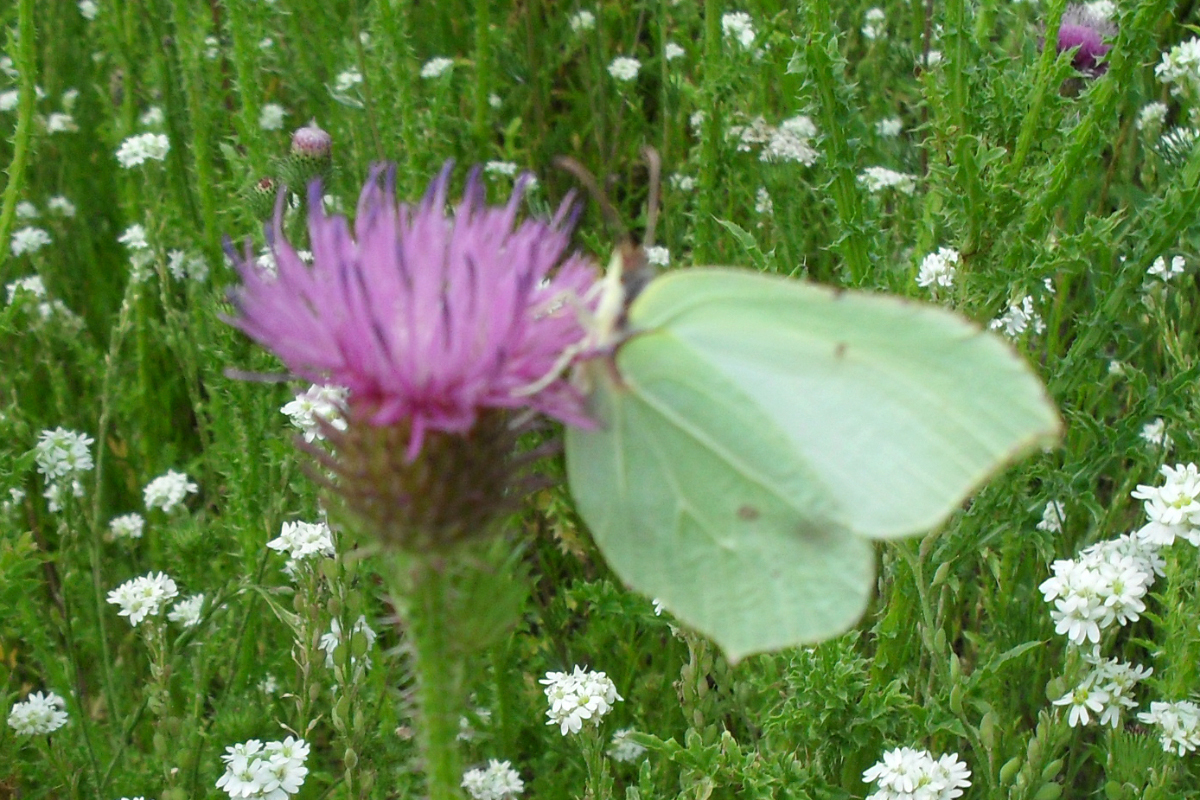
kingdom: Animalia
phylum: Arthropoda
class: Insecta
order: Lepidoptera
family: Pieridae
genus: Gonepteryx
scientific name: Gonepteryx rhamni
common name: Brimstone
